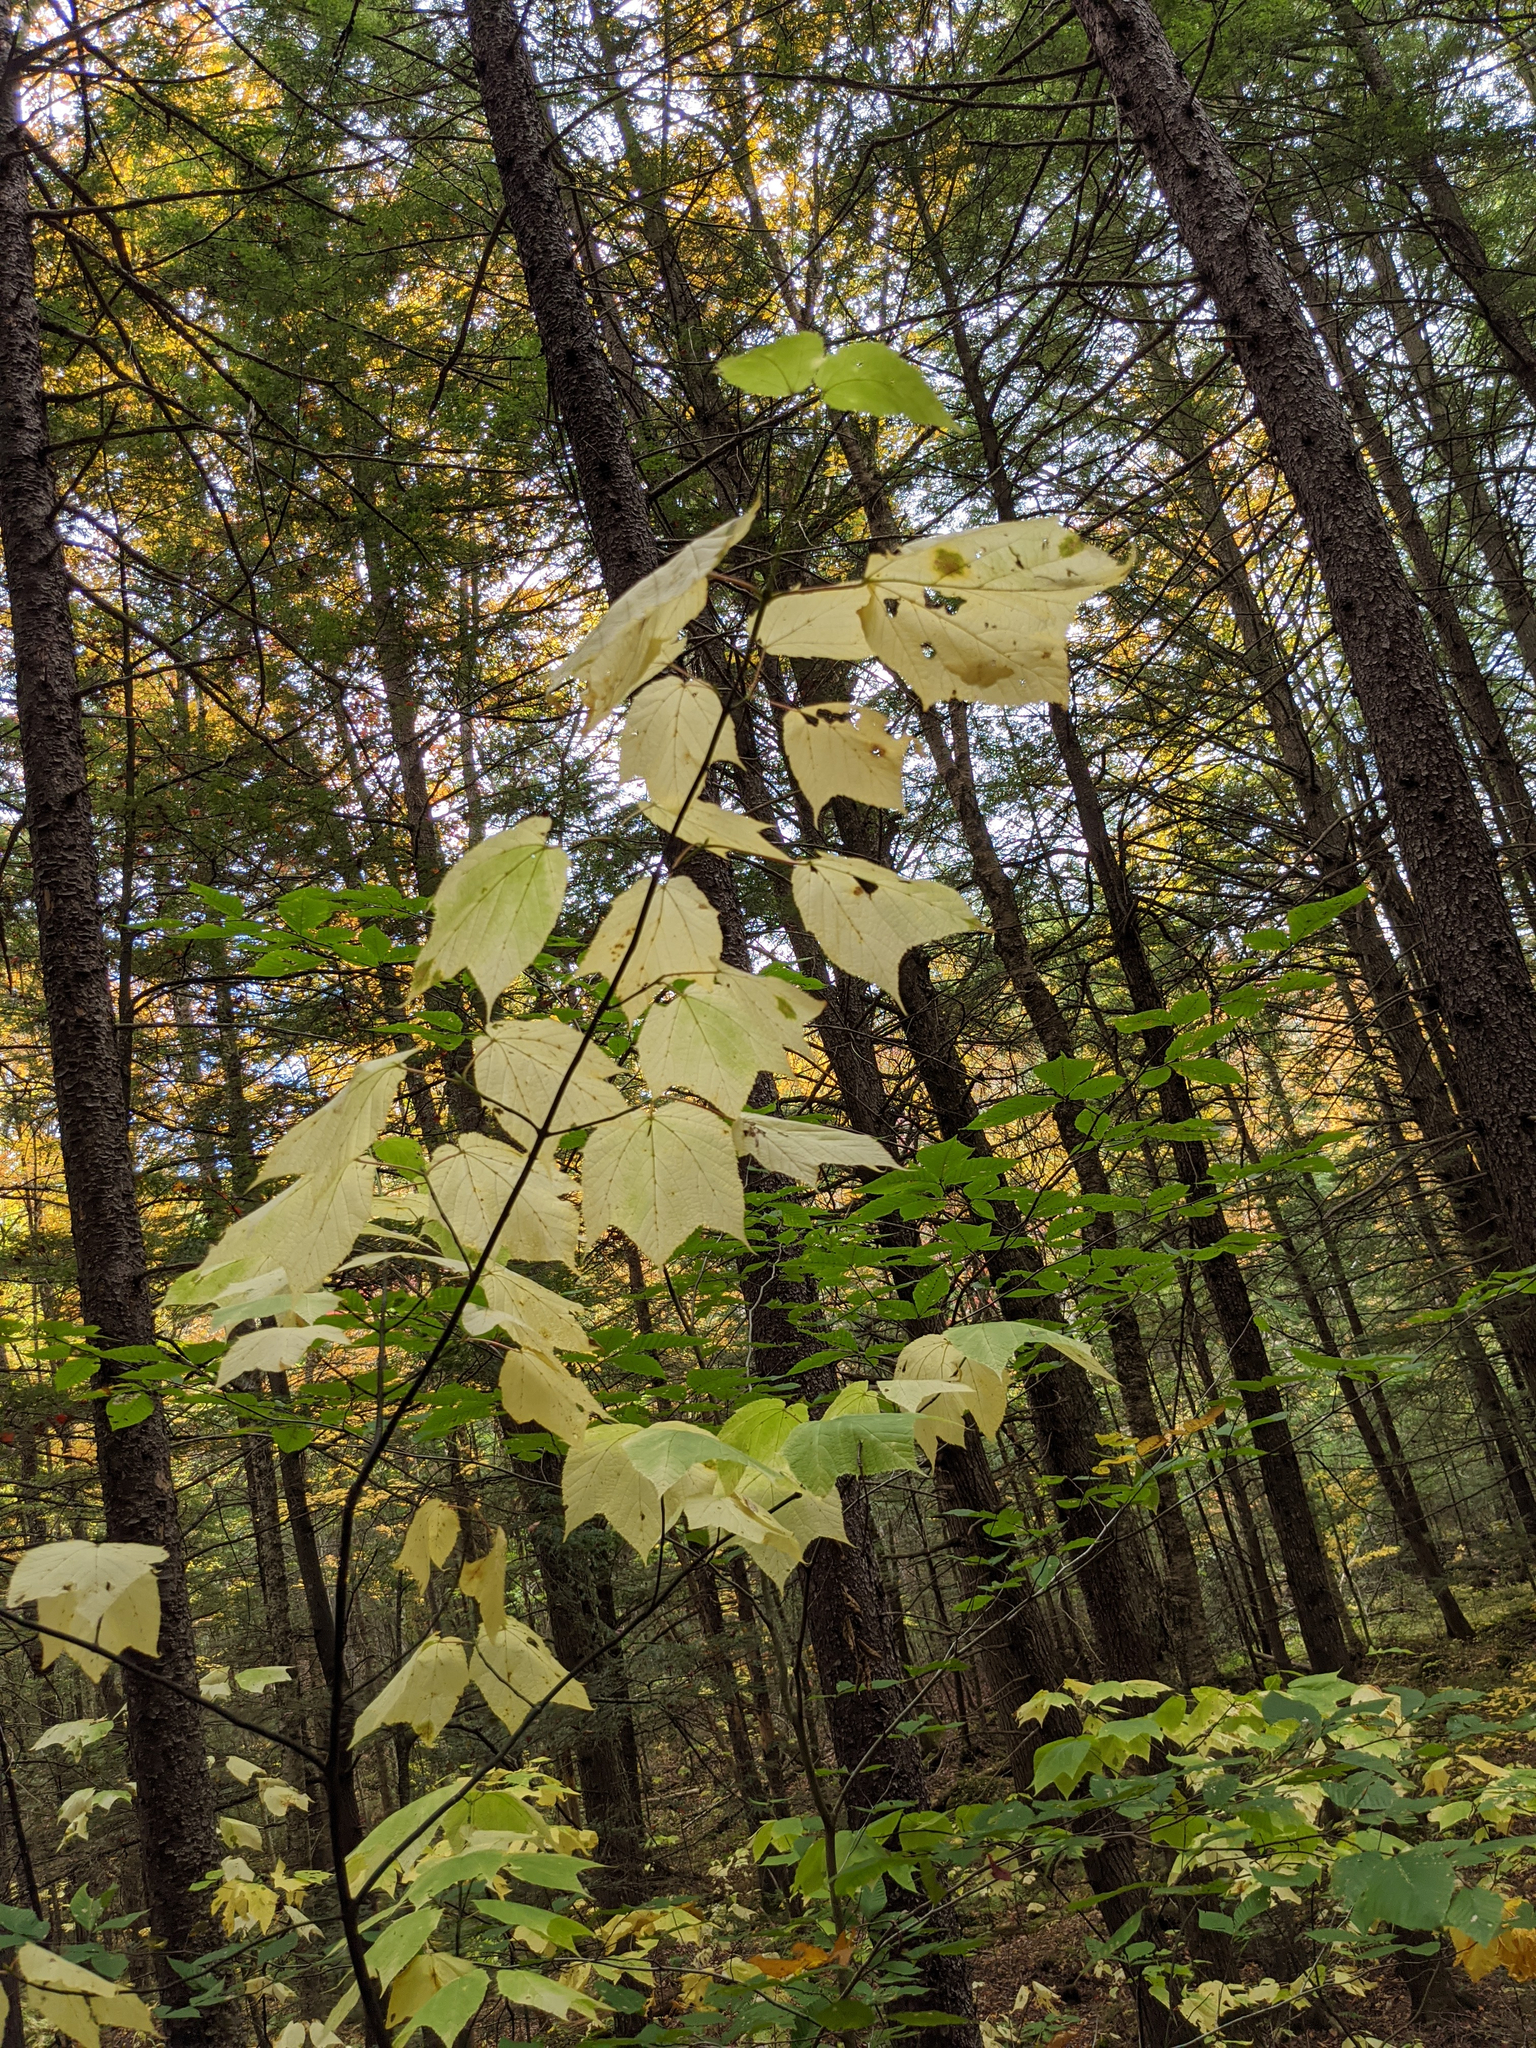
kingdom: Plantae
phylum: Tracheophyta
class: Magnoliopsida
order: Sapindales
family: Sapindaceae
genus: Acer
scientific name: Acer pensylvanicum
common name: Moosewood
